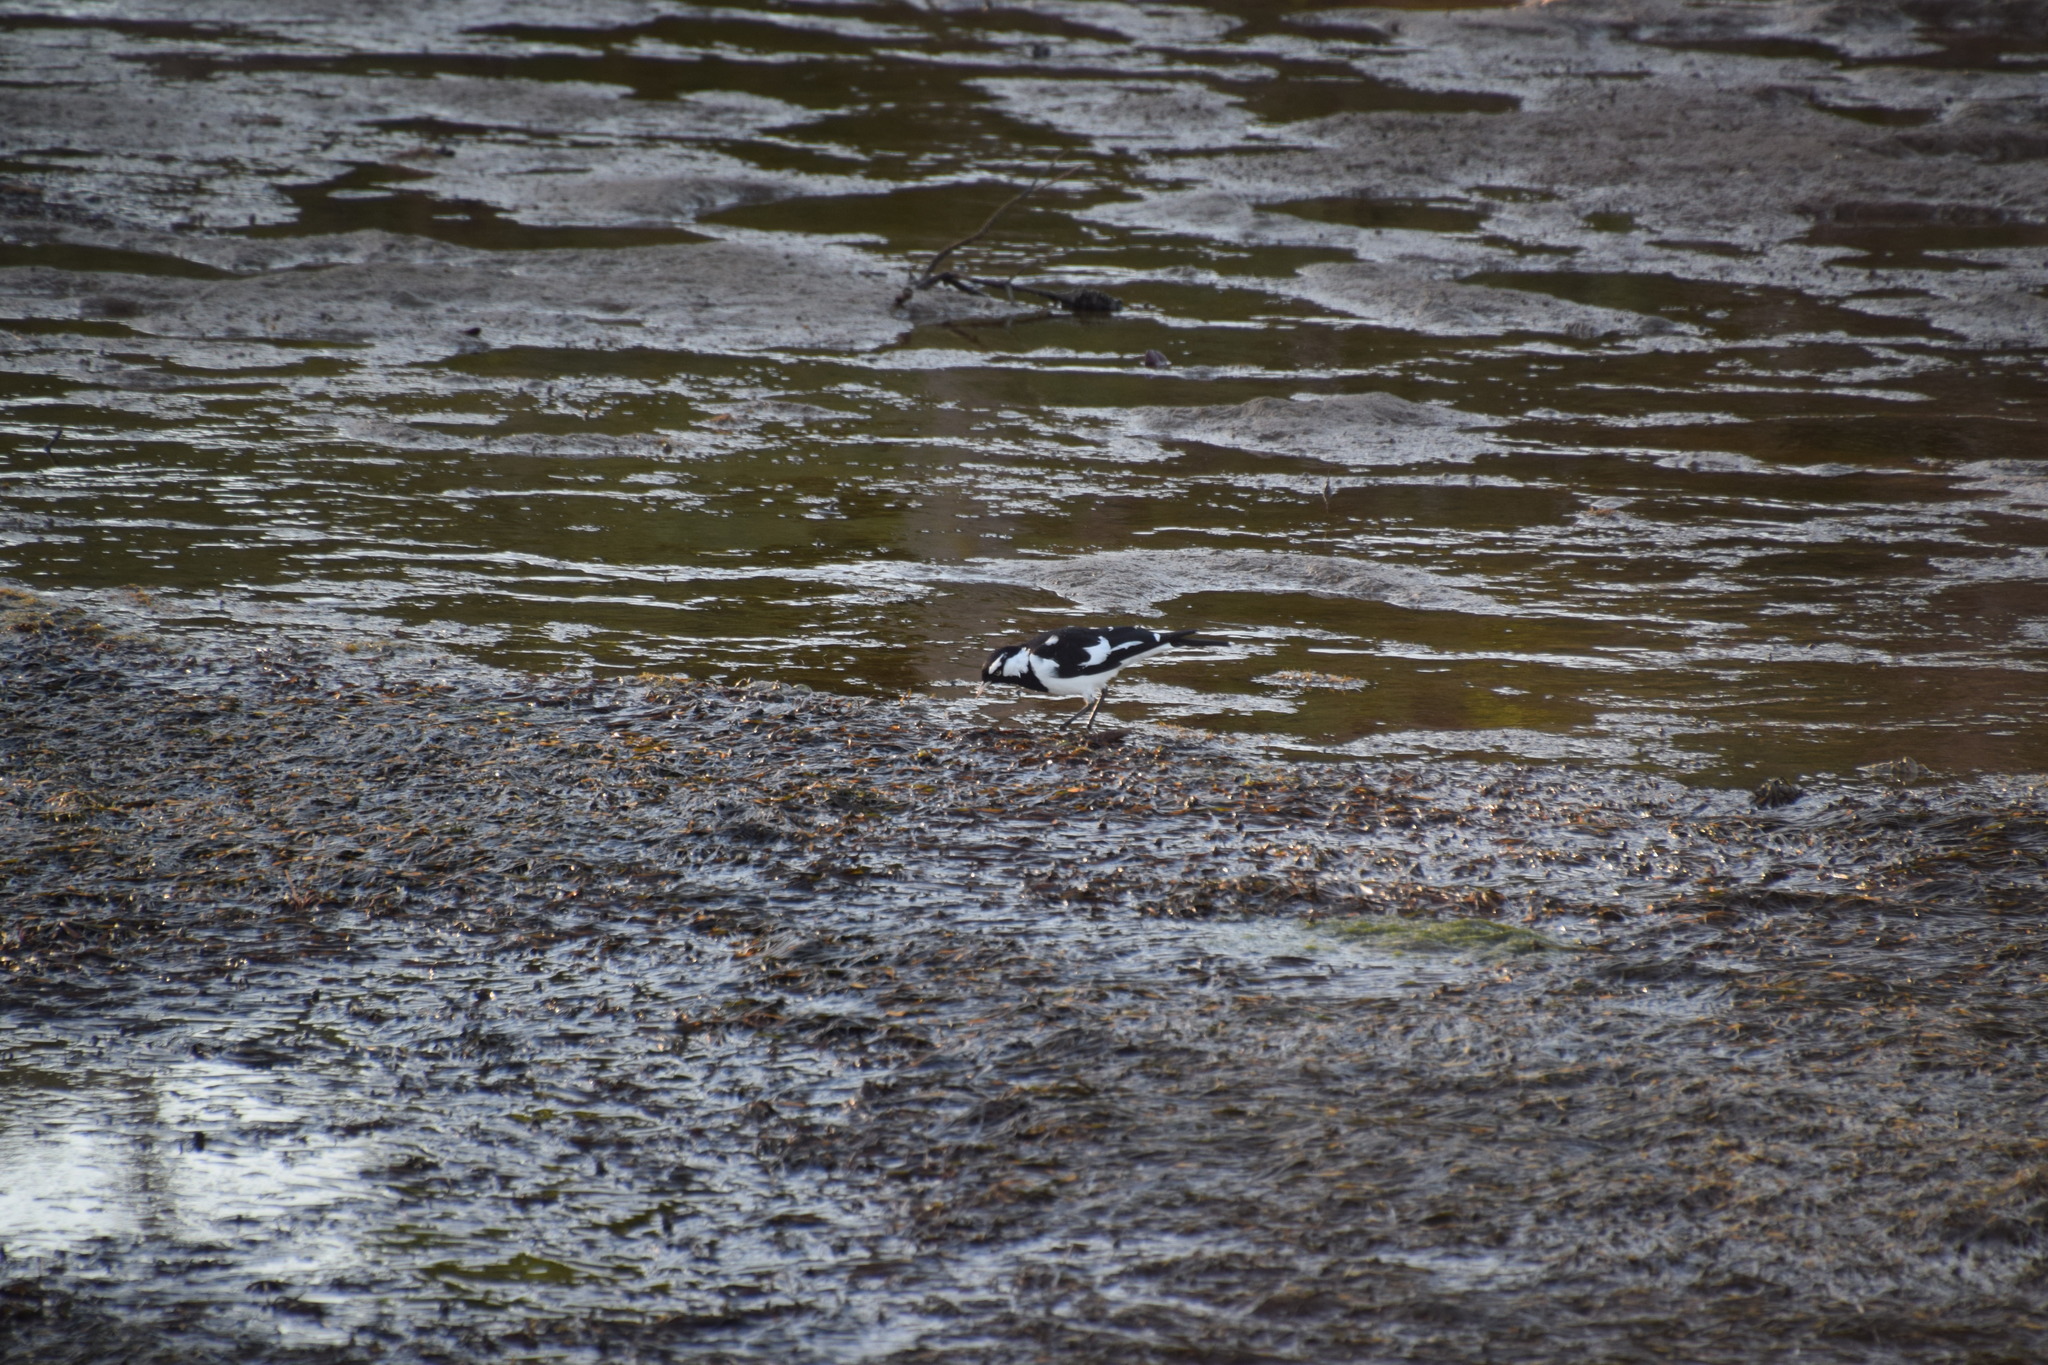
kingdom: Animalia
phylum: Chordata
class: Aves
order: Passeriformes
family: Monarchidae
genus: Grallina
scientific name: Grallina cyanoleuca
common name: Magpie-lark
